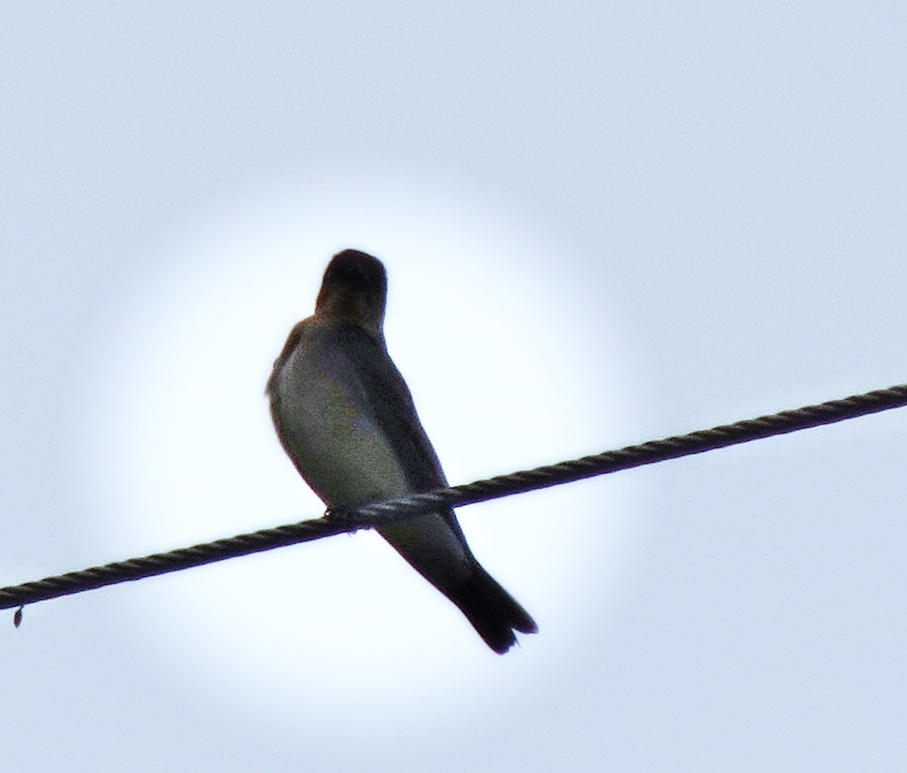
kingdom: Animalia
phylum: Chordata
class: Aves
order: Passeriformes
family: Hirundinidae
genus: Stelgidopteryx
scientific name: Stelgidopteryx ruficollis
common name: Southern rough-winged swallow
